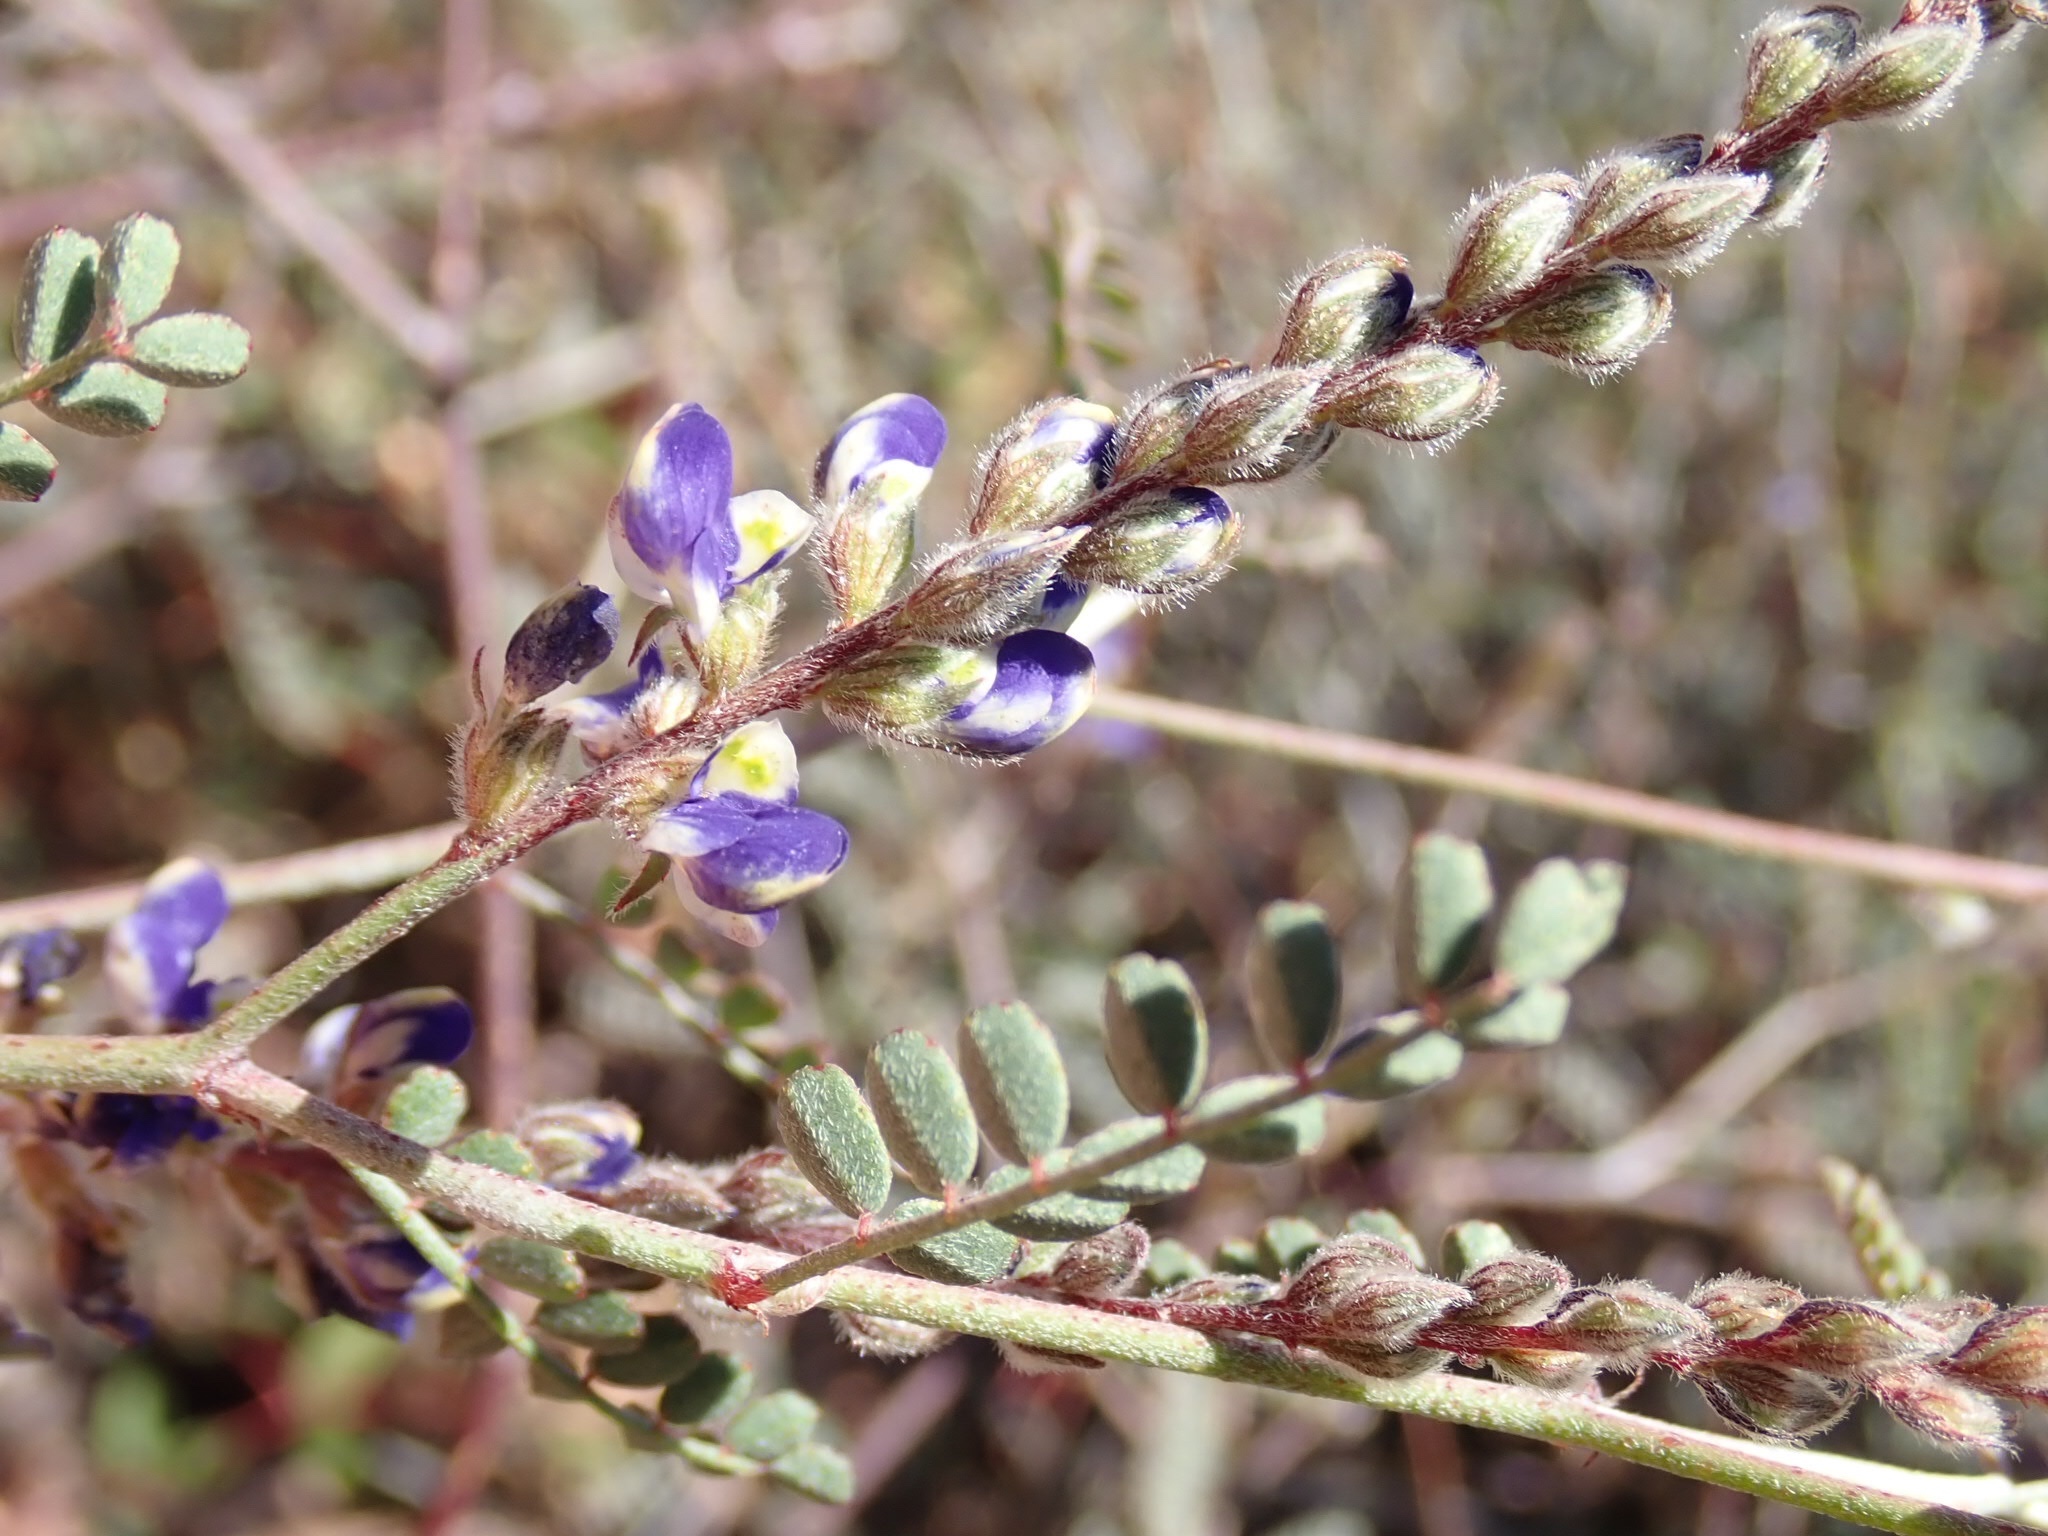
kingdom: Plantae
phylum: Tracheophyta
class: Magnoliopsida
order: Fabales
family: Fabaceae
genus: Marina
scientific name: Marina parryi
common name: Parry's marina
